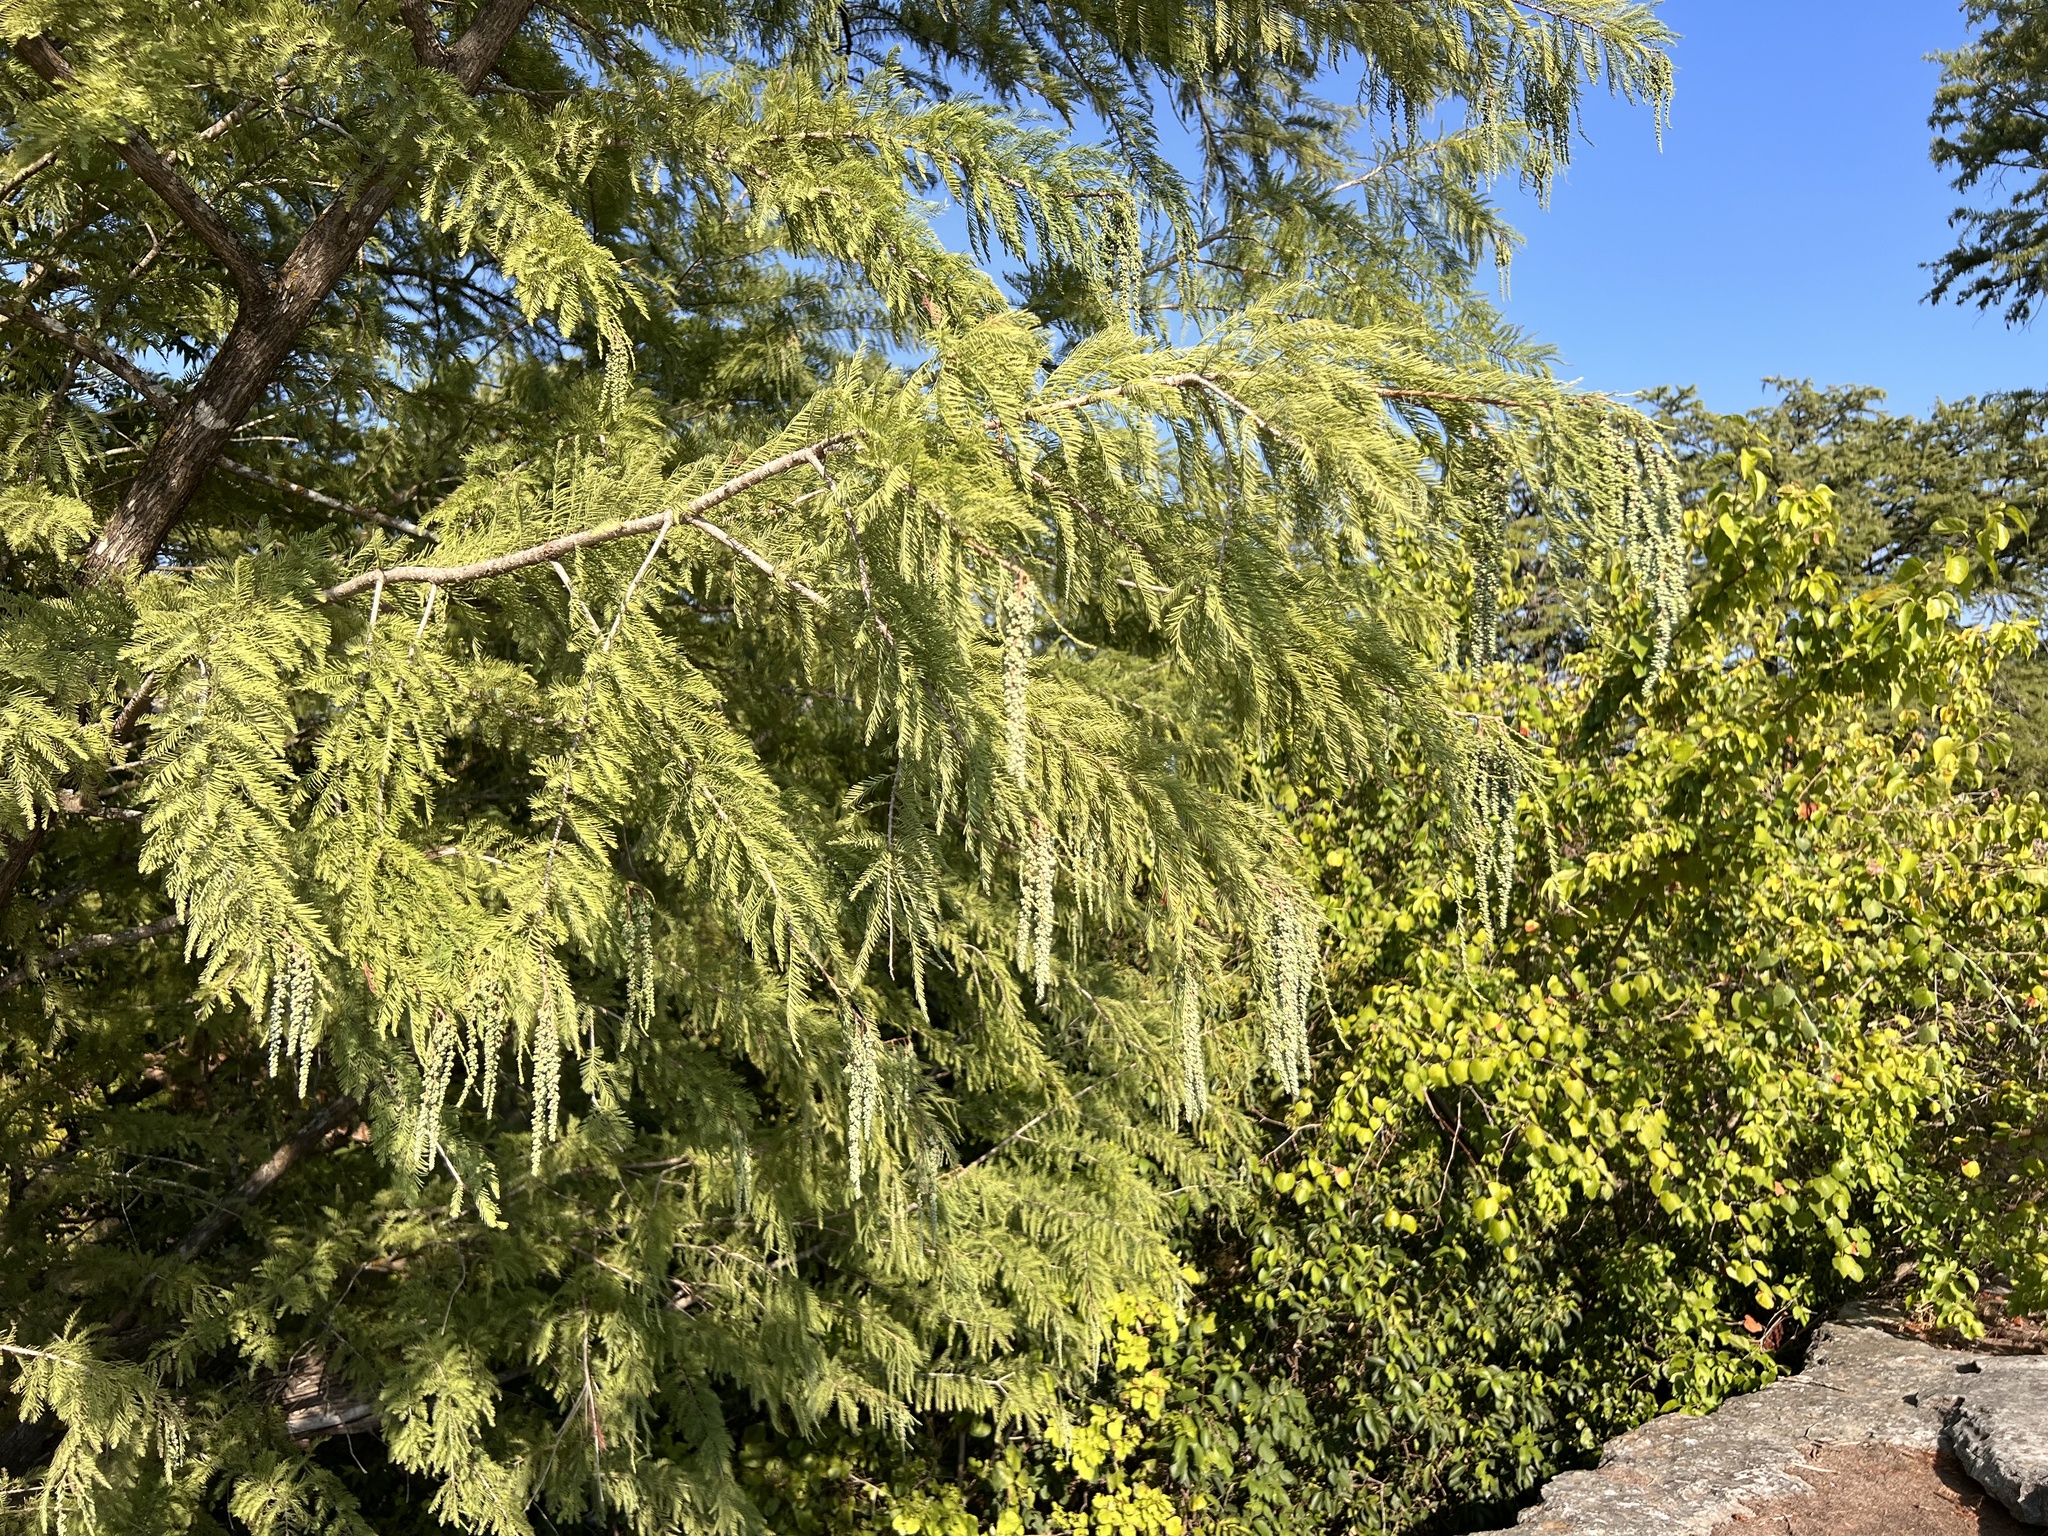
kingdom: Plantae
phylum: Tracheophyta
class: Pinopsida
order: Pinales
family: Cupressaceae
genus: Taxodium
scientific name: Taxodium distichum
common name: Bald cypress
